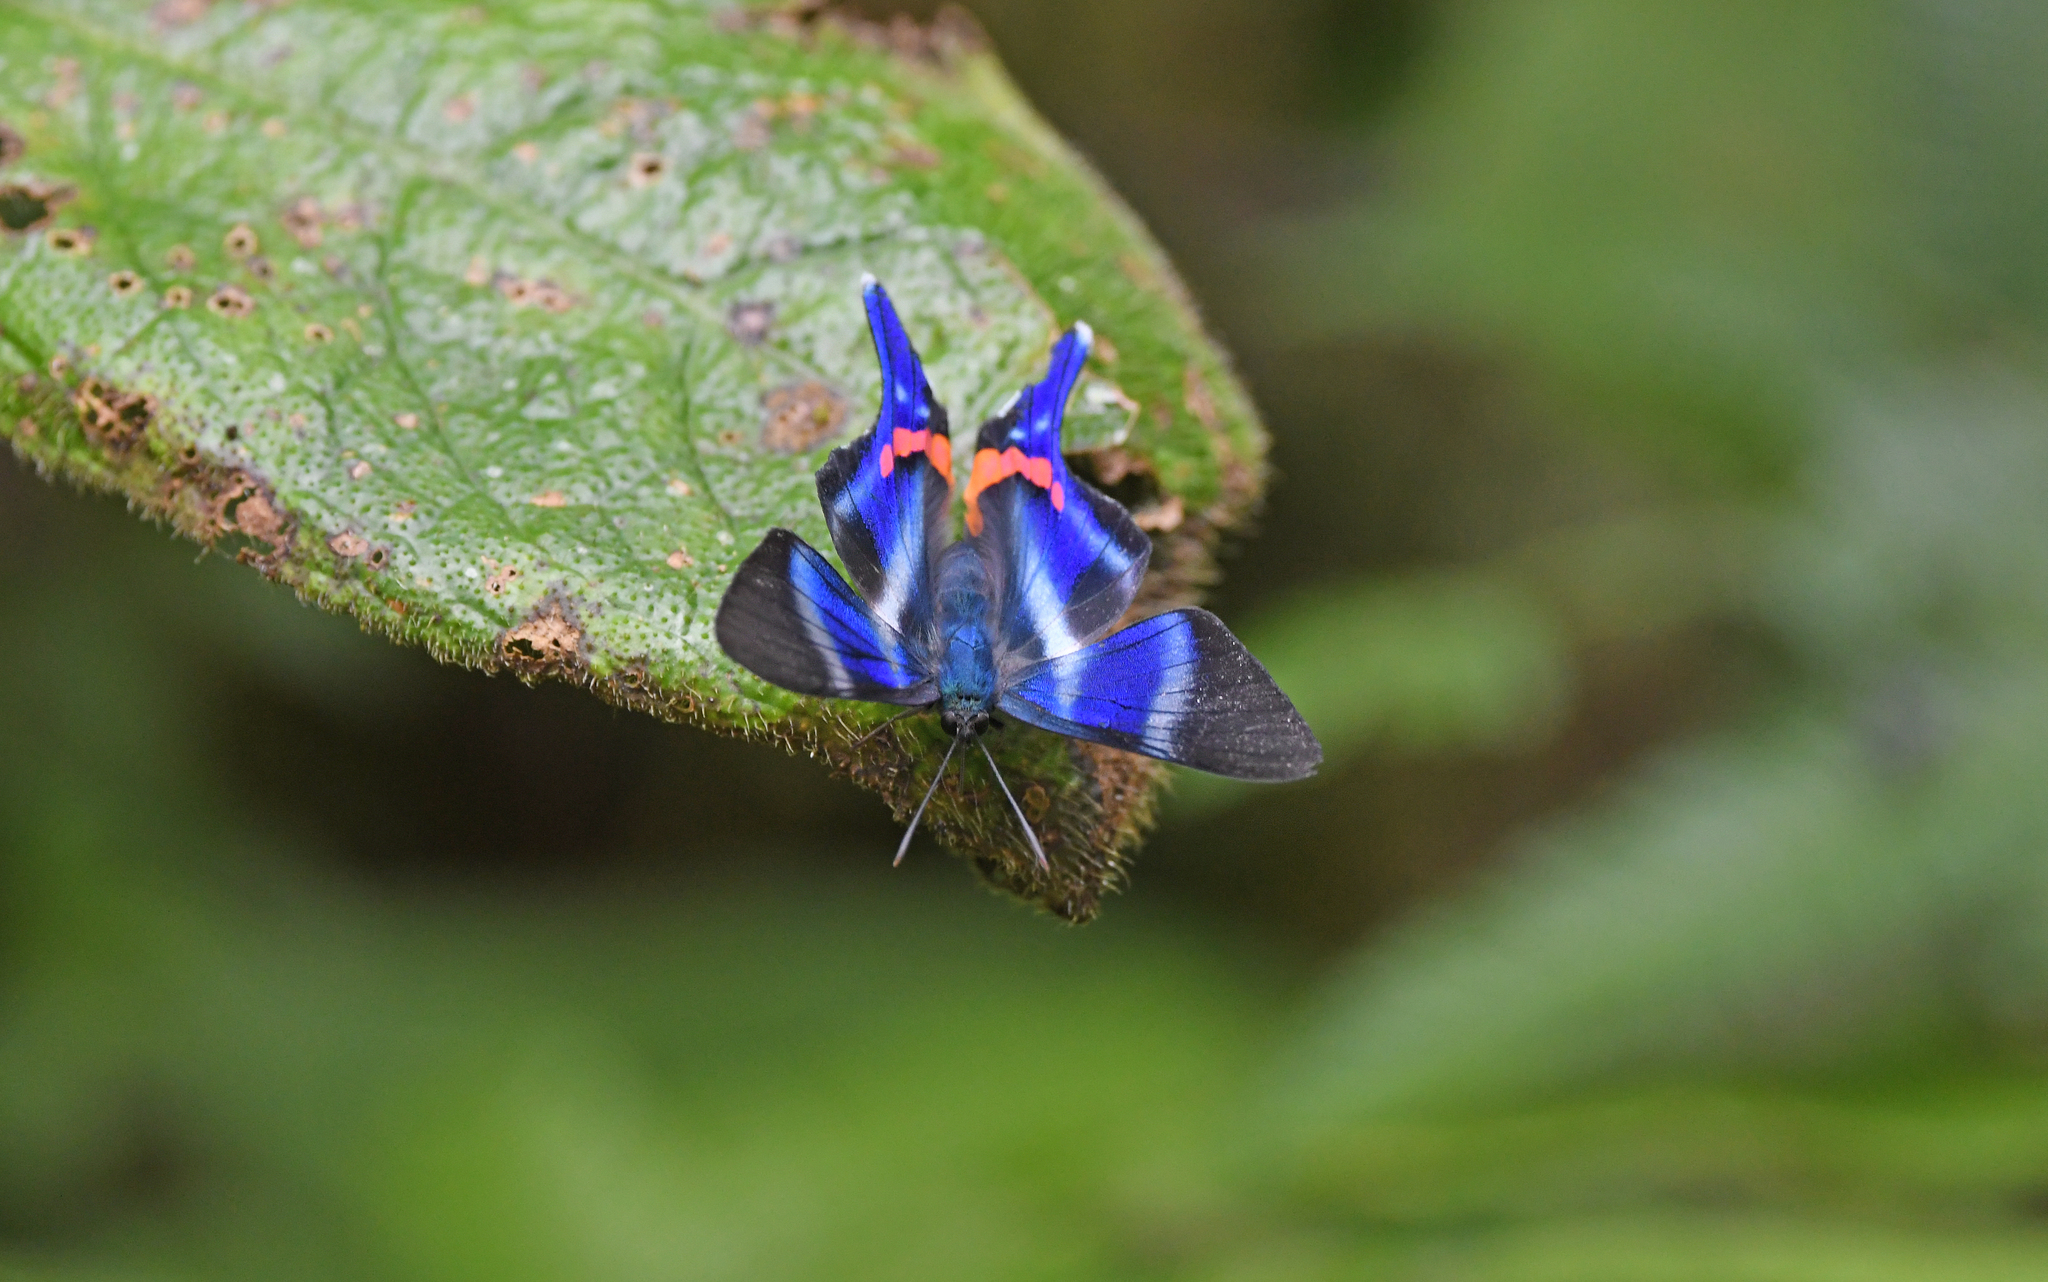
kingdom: Animalia
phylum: Arthropoda
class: Insecta
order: Lepidoptera
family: Riodinidae
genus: Rhetus
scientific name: Rhetus dysonii
